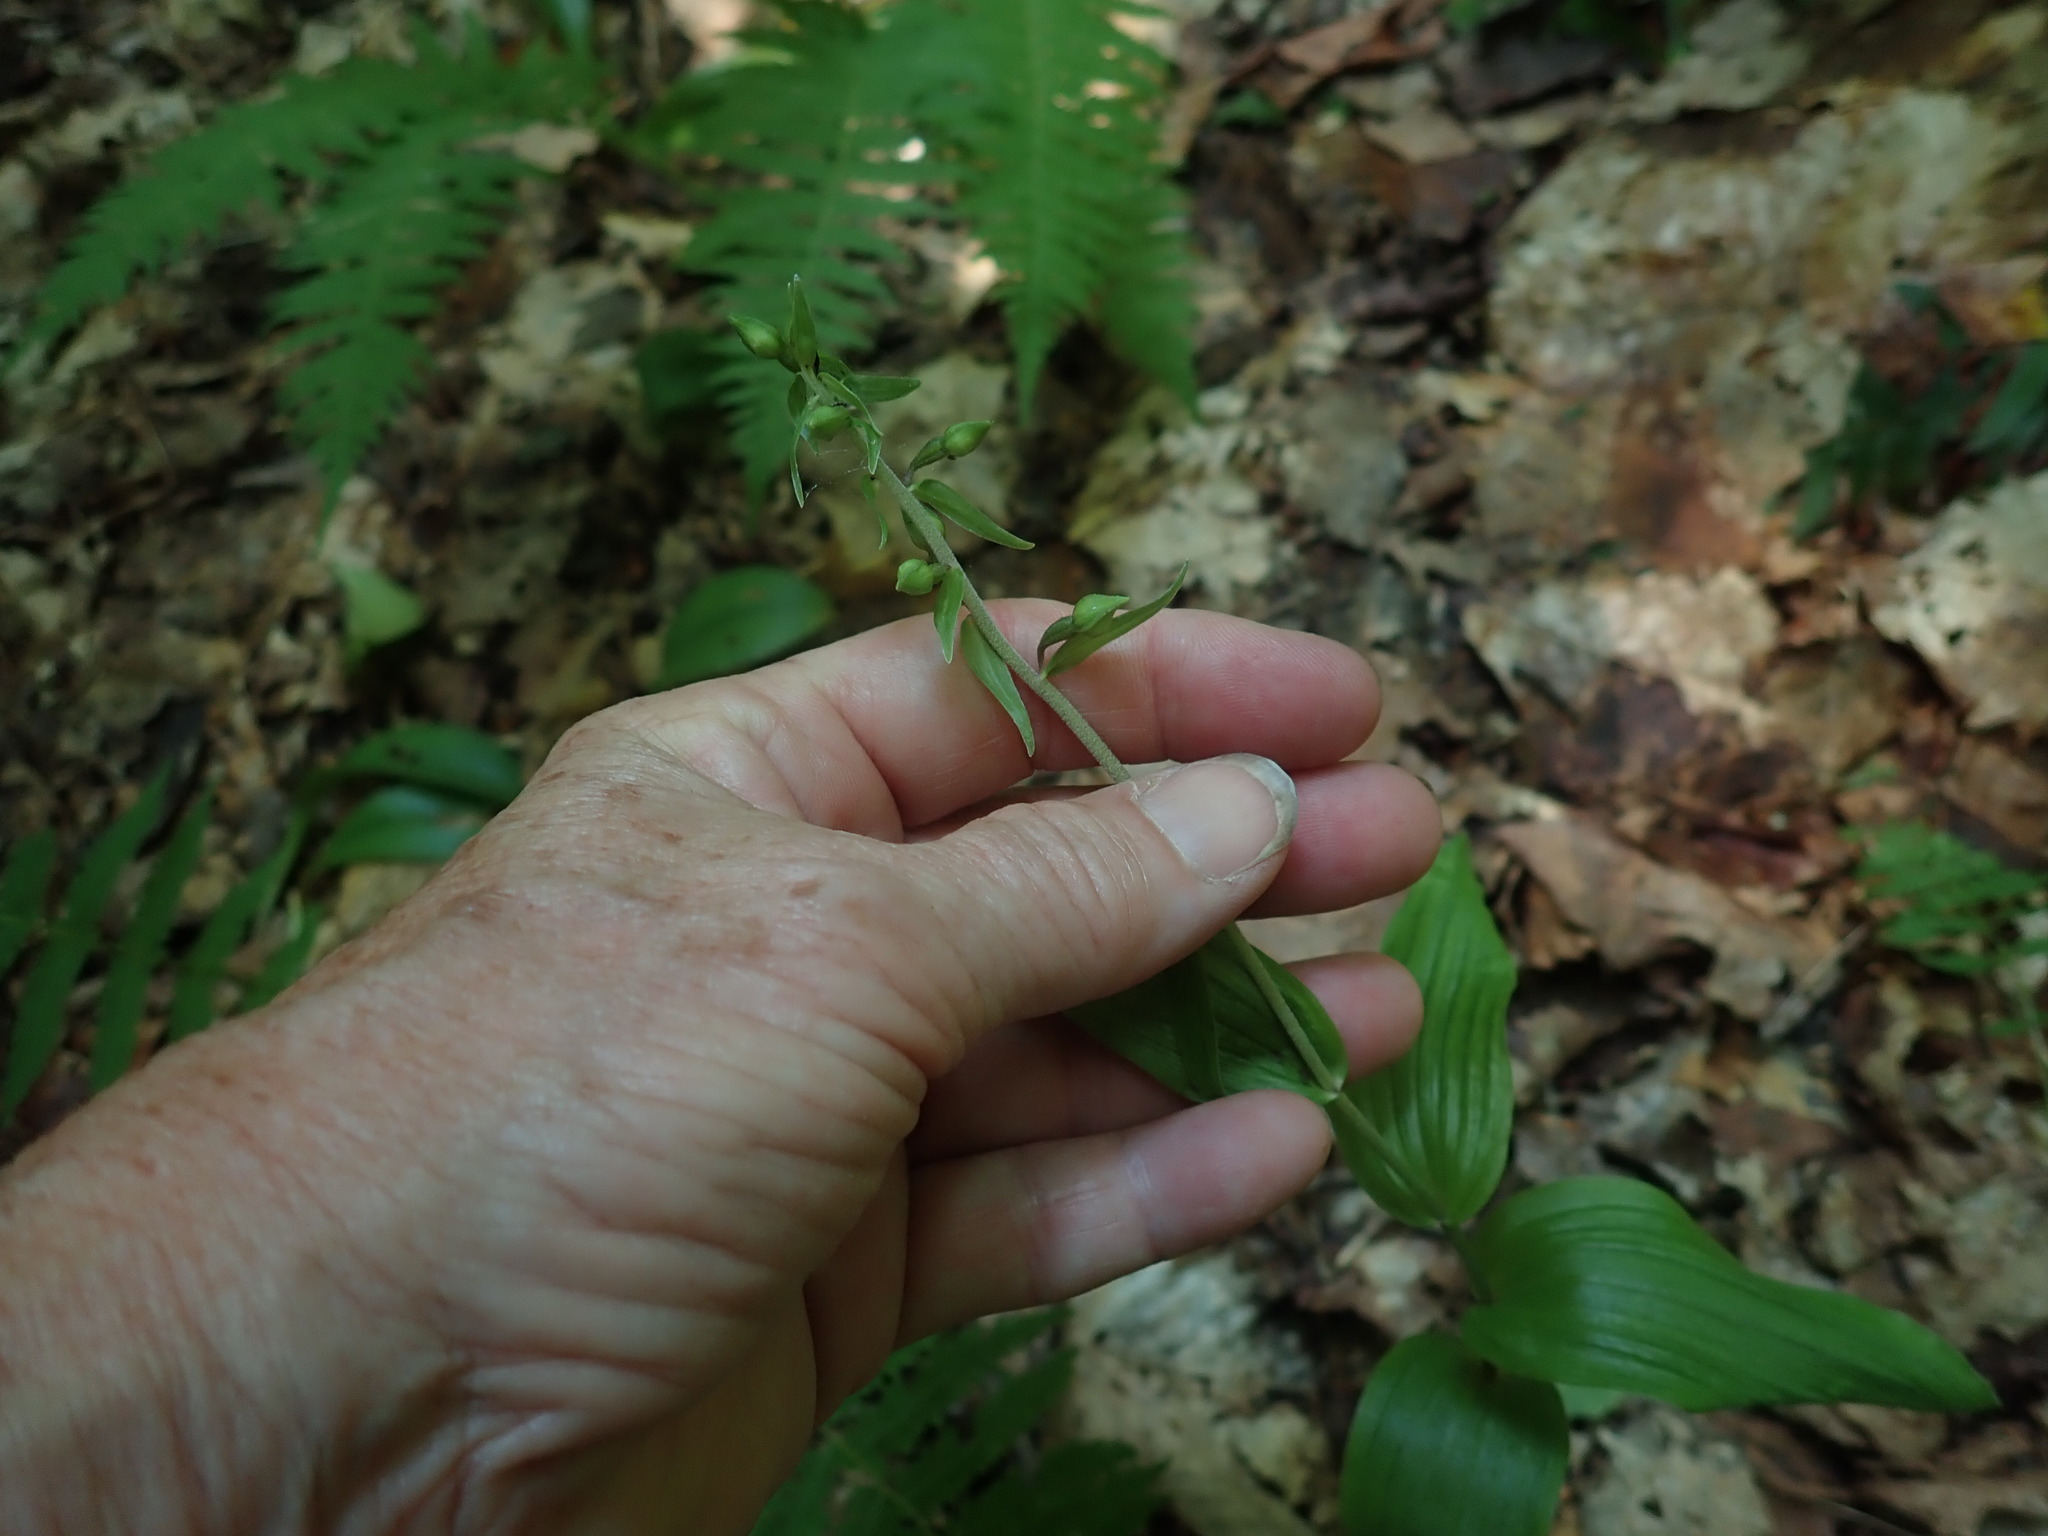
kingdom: Plantae
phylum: Tracheophyta
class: Liliopsida
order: Asparagales
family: Orchidaceae
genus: Epipactis
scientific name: Epipactis helleborine
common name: Broad-leaved helleborine
